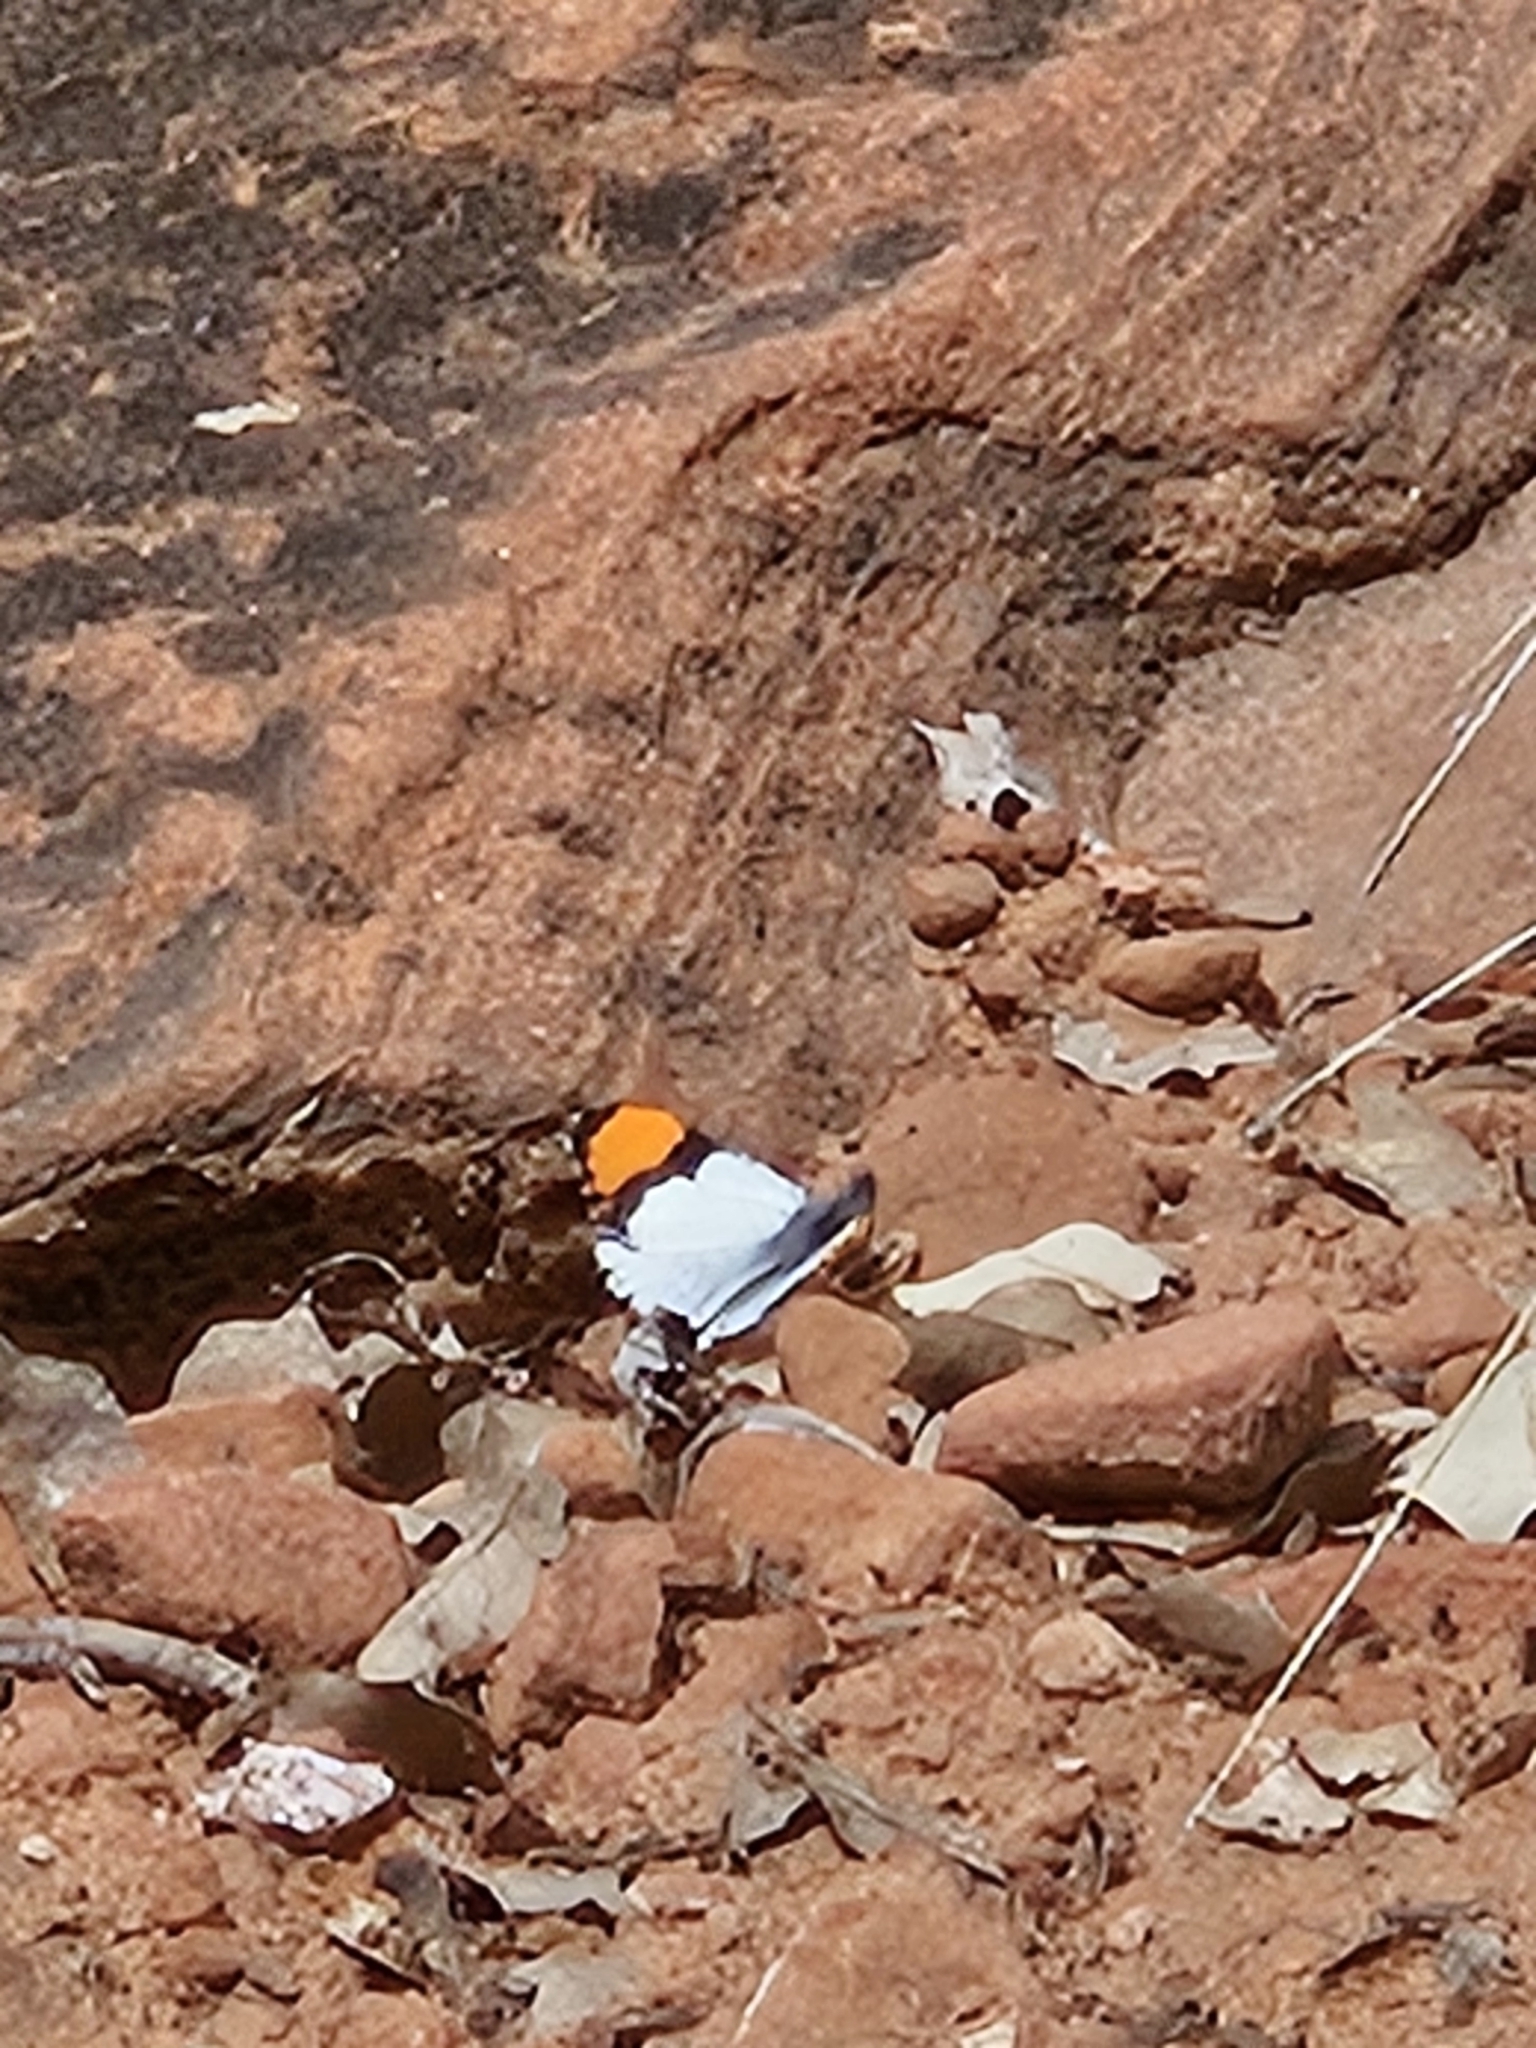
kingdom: Animalia
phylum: Arthropoda
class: Insecta
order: Lepidoptera
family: Pieridae
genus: Anthocharis
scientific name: Anthocharis thoosa
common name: Southwestern orangetip
